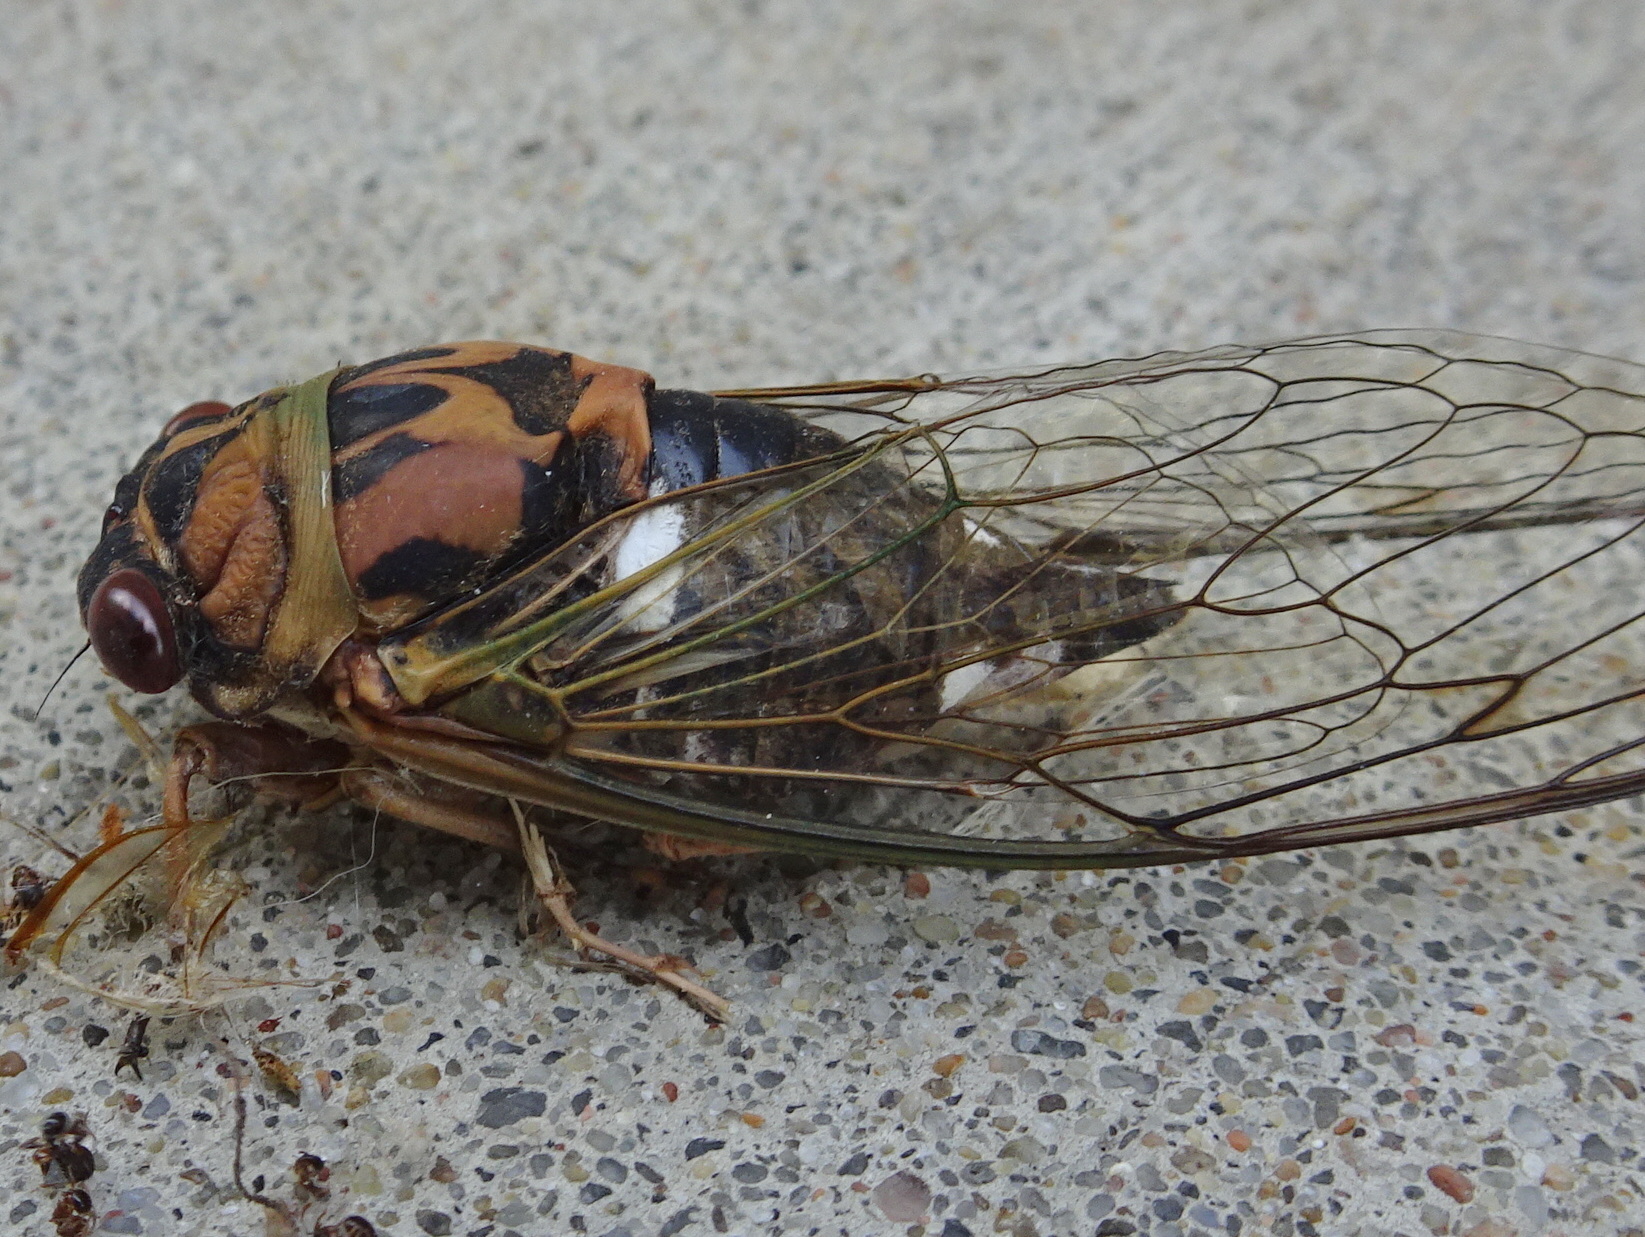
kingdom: Animalia
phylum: Arthropoda
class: Insecta
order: Hemiptera
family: Cicadidae
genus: Neotibicen
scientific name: Neotibicen pruinosus
